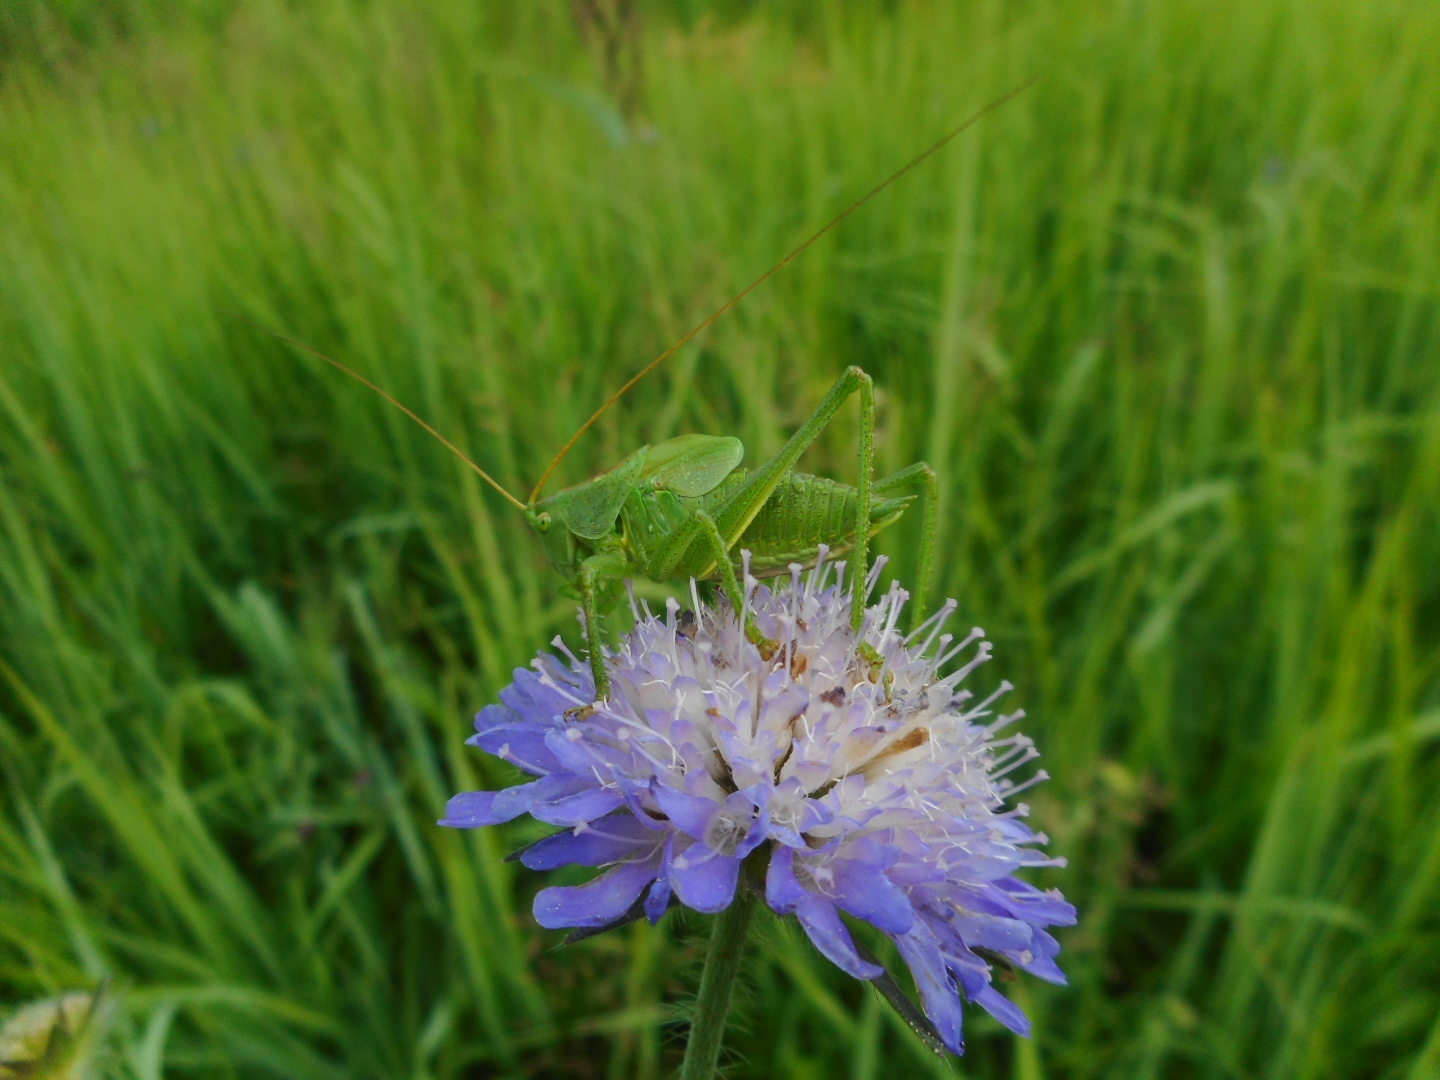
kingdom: Animalia
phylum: Arthropoda
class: Insecta
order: Orthoptera
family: Tettigoniidae
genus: Tettigonia
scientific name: Tettigonia cantans
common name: Upland green bush-cricket
